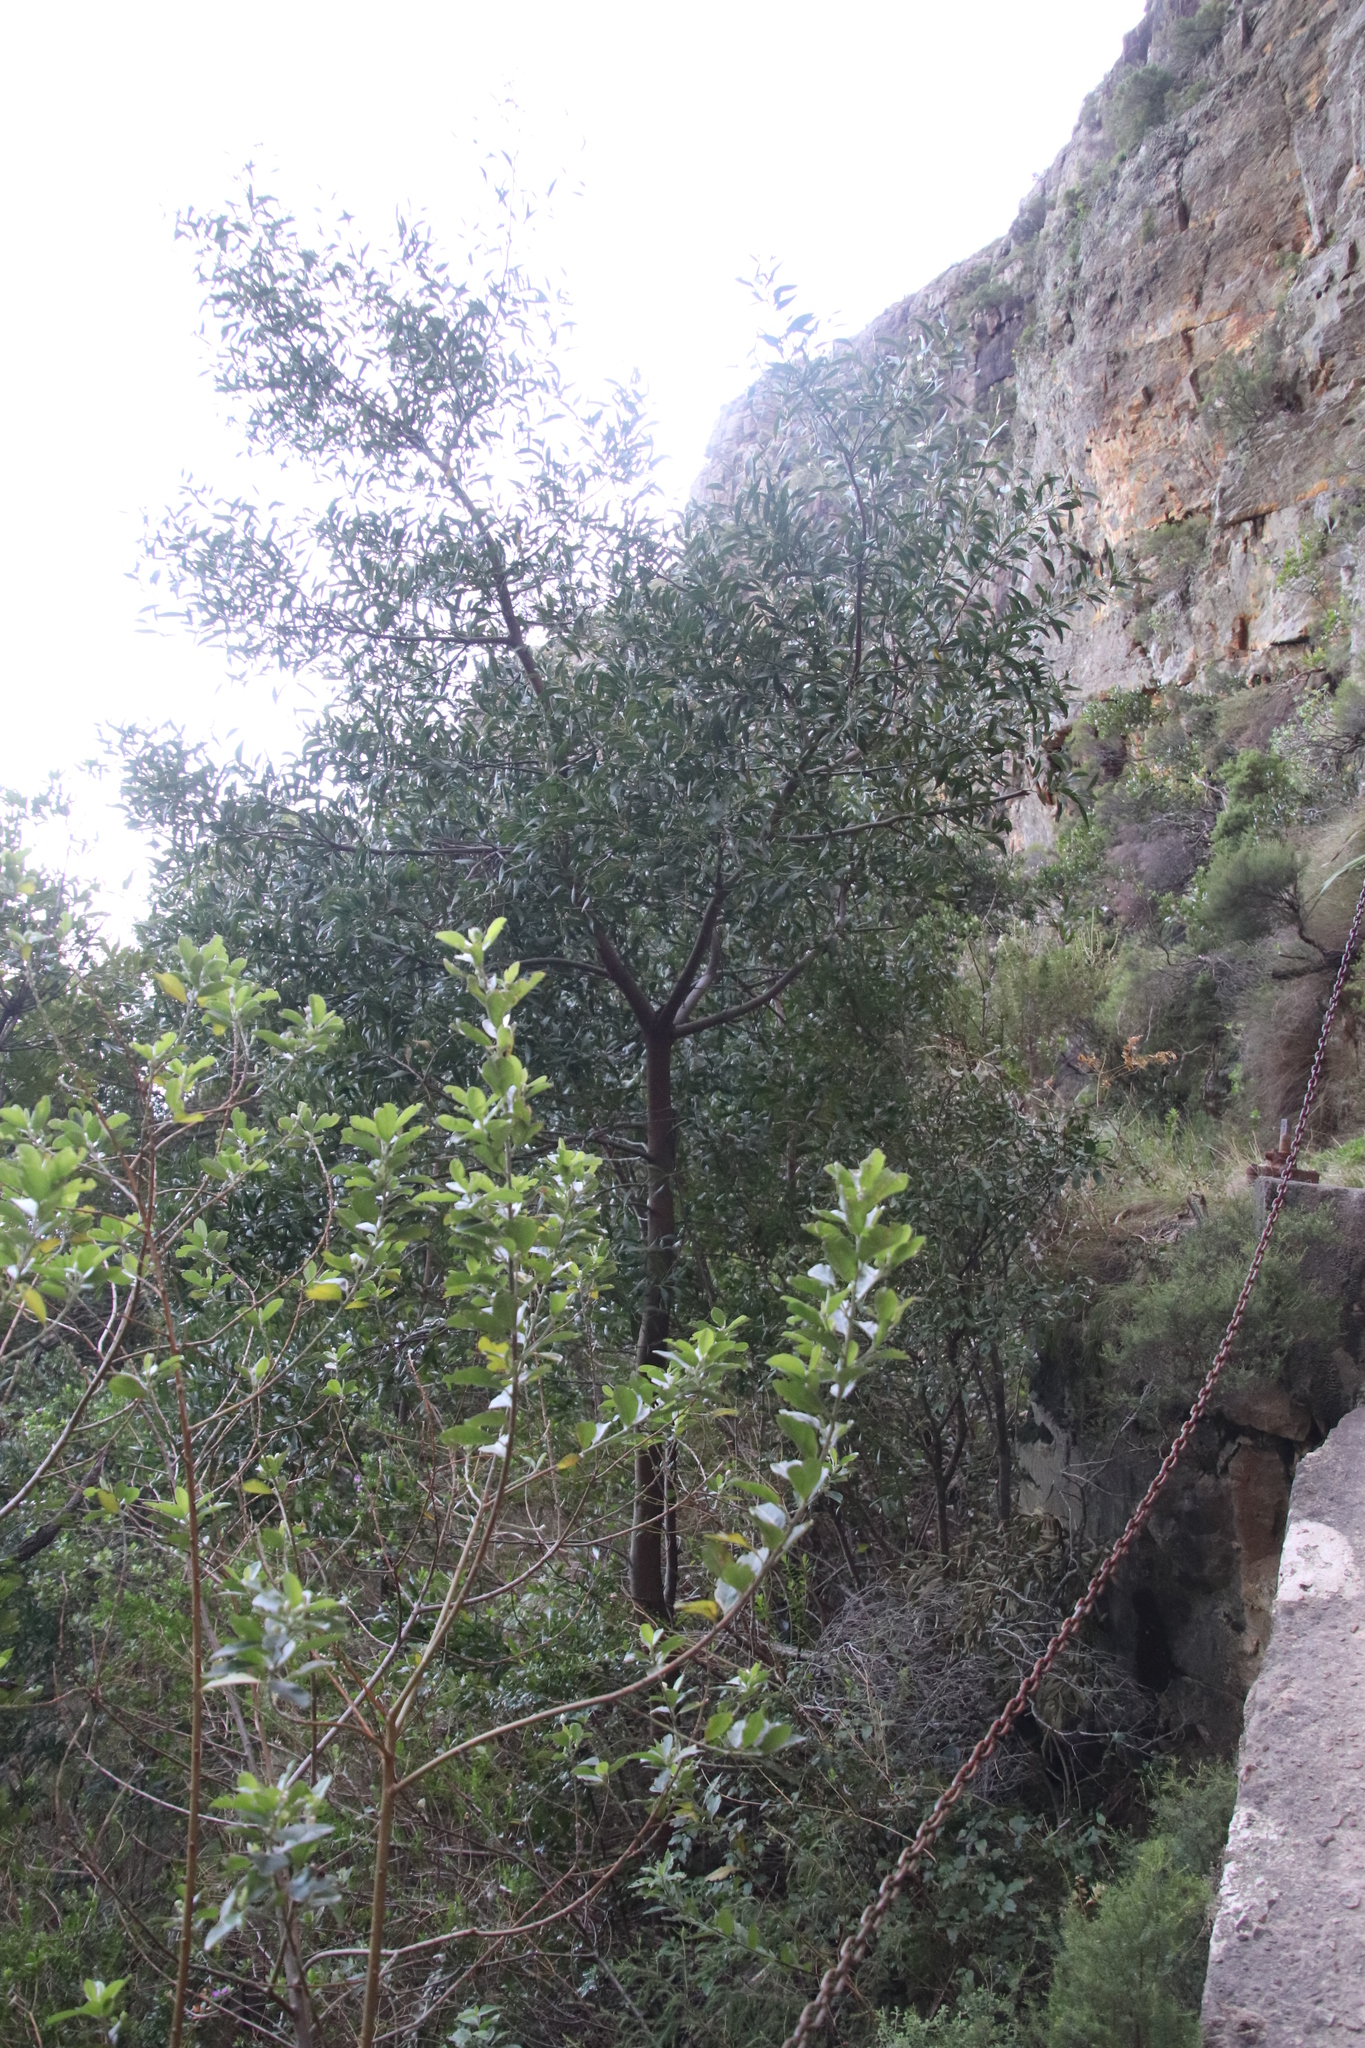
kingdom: Plantae
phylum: Tracheophyta
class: Magnoliopsida
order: Fabales
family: Fabaceae
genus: Acacia
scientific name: Acacia melanoxylon
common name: Blackwood
